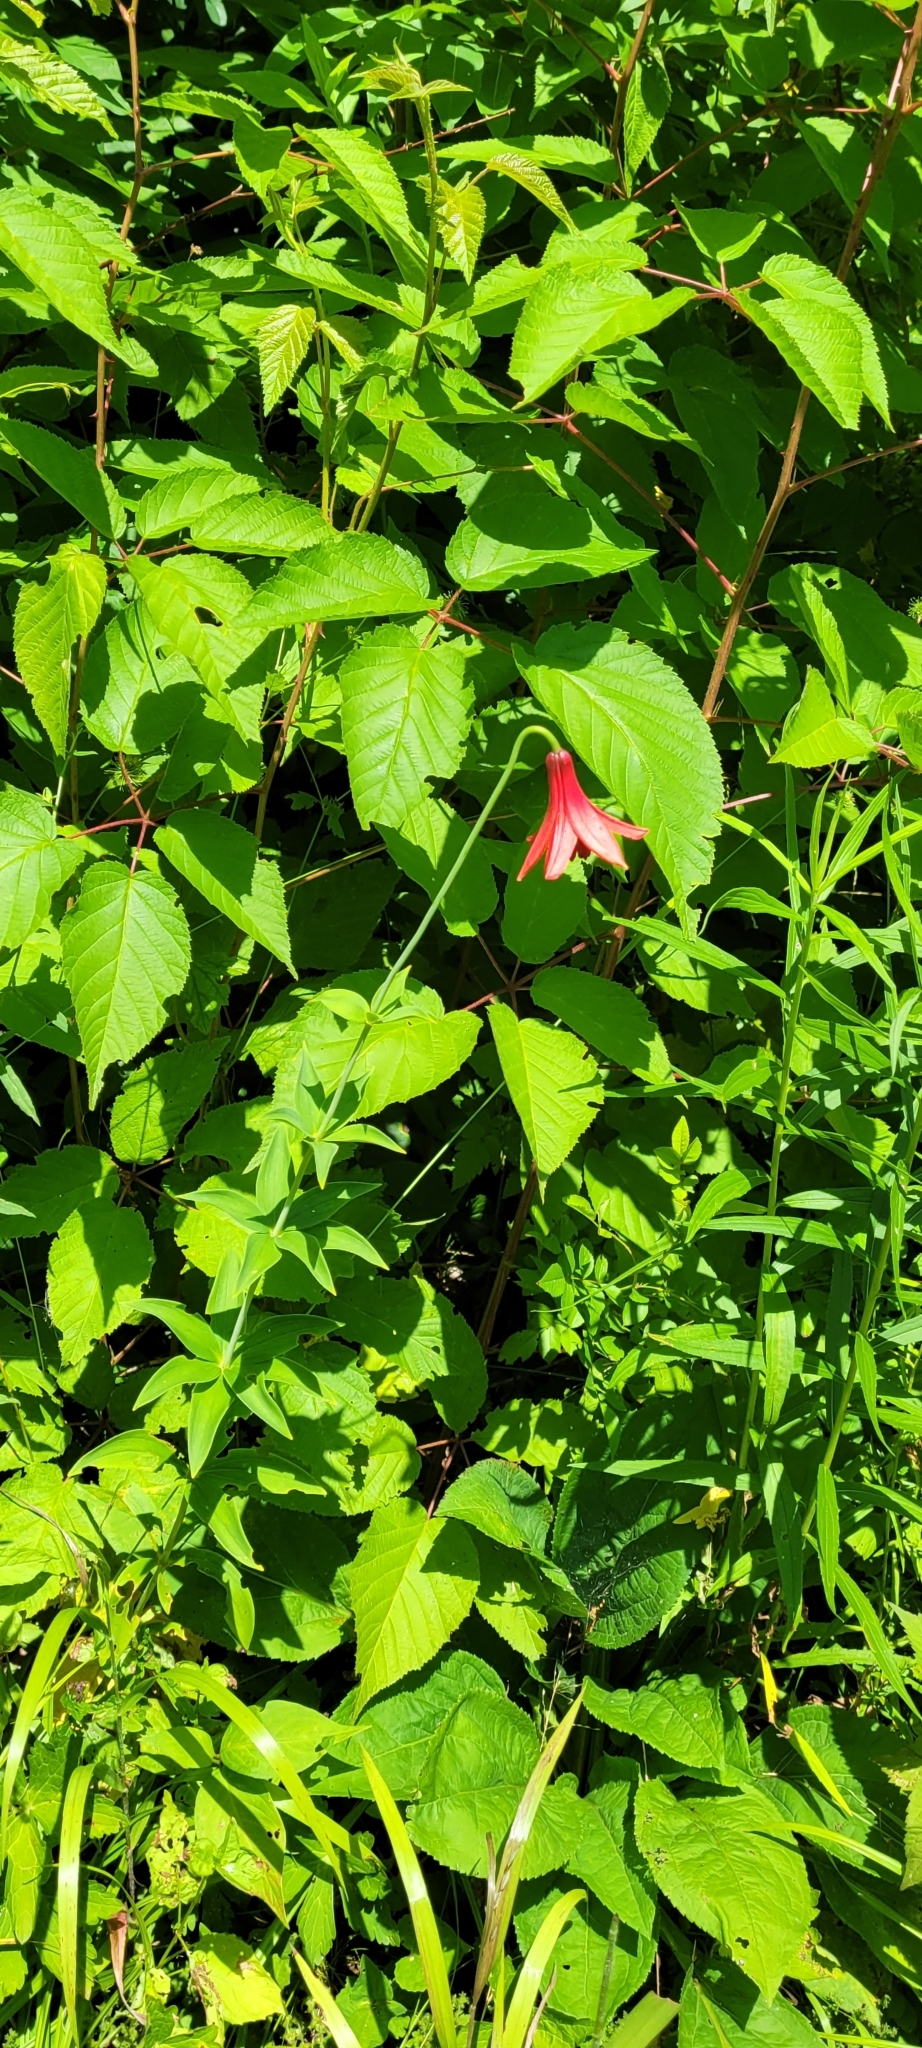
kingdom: Plantae
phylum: Tracheophyta
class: Liliopsida
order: Liliales
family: Liliaceae
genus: Lilium
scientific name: Lilium canadense
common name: Canada lily
